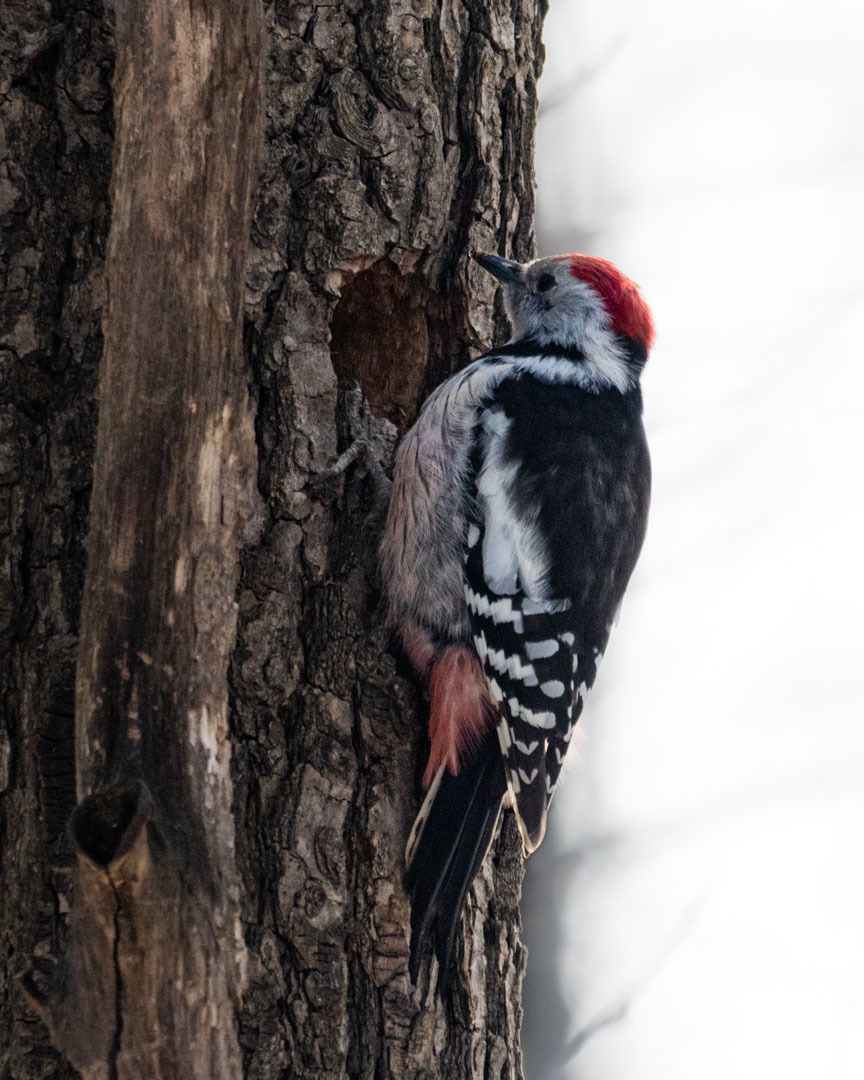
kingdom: Animalia
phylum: Chordata
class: Aves
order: Piciformes
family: Picidae
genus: Dendrocoptes
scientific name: Dendrocoptes medius
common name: Middle spotted woodpecker
